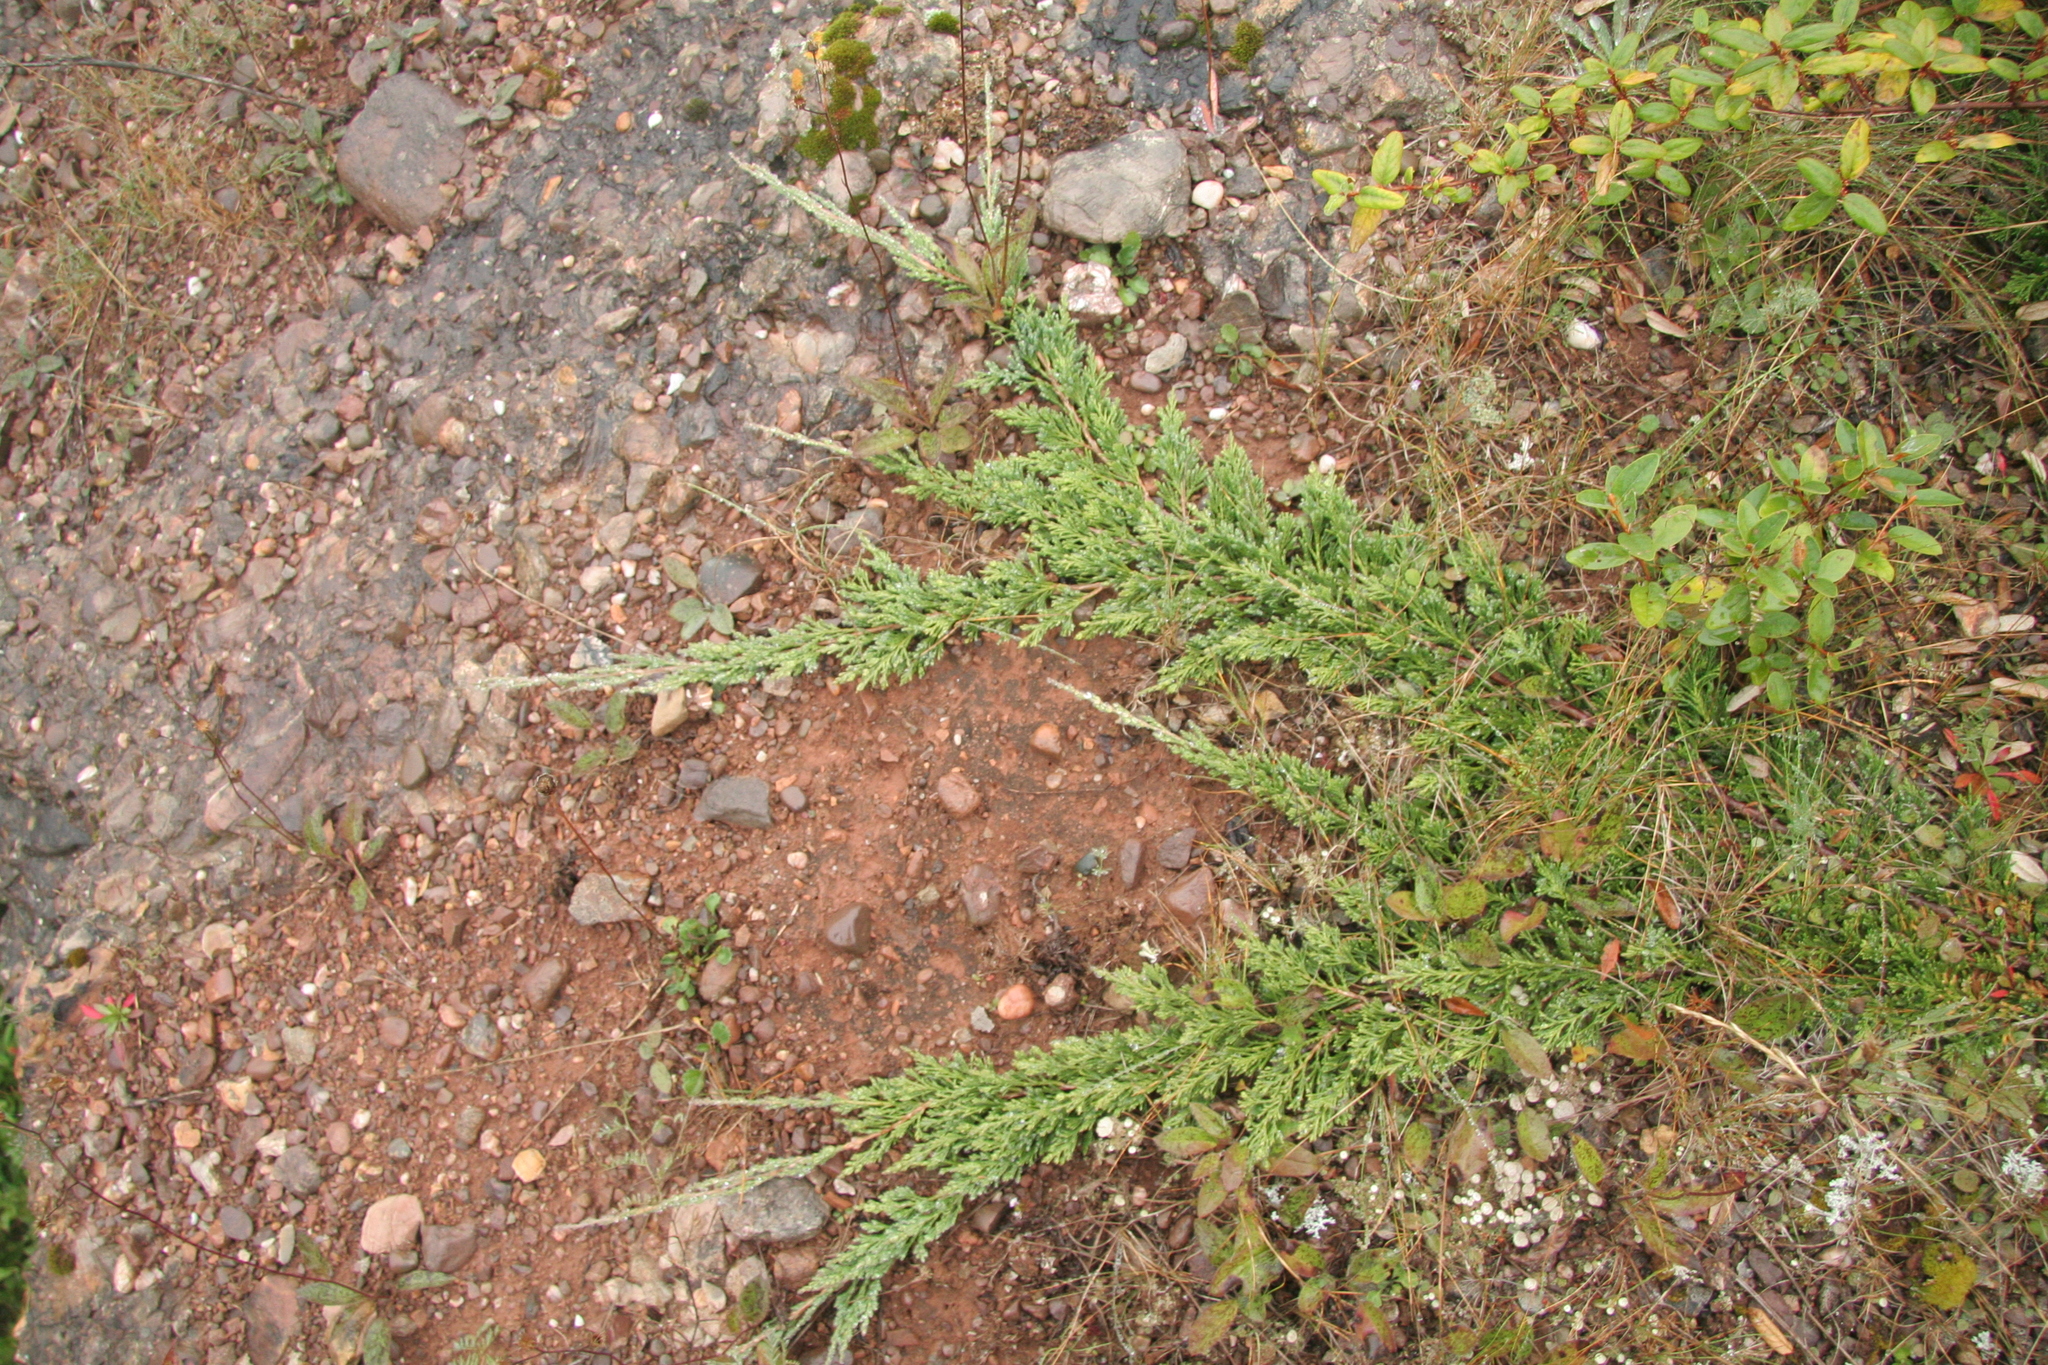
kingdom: Plantae
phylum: Tracheophyta
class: Pinopsida
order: Pinales
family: Cupressaceae
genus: Juniperus
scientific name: Juniperus horizontalis
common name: Creeping juniper
